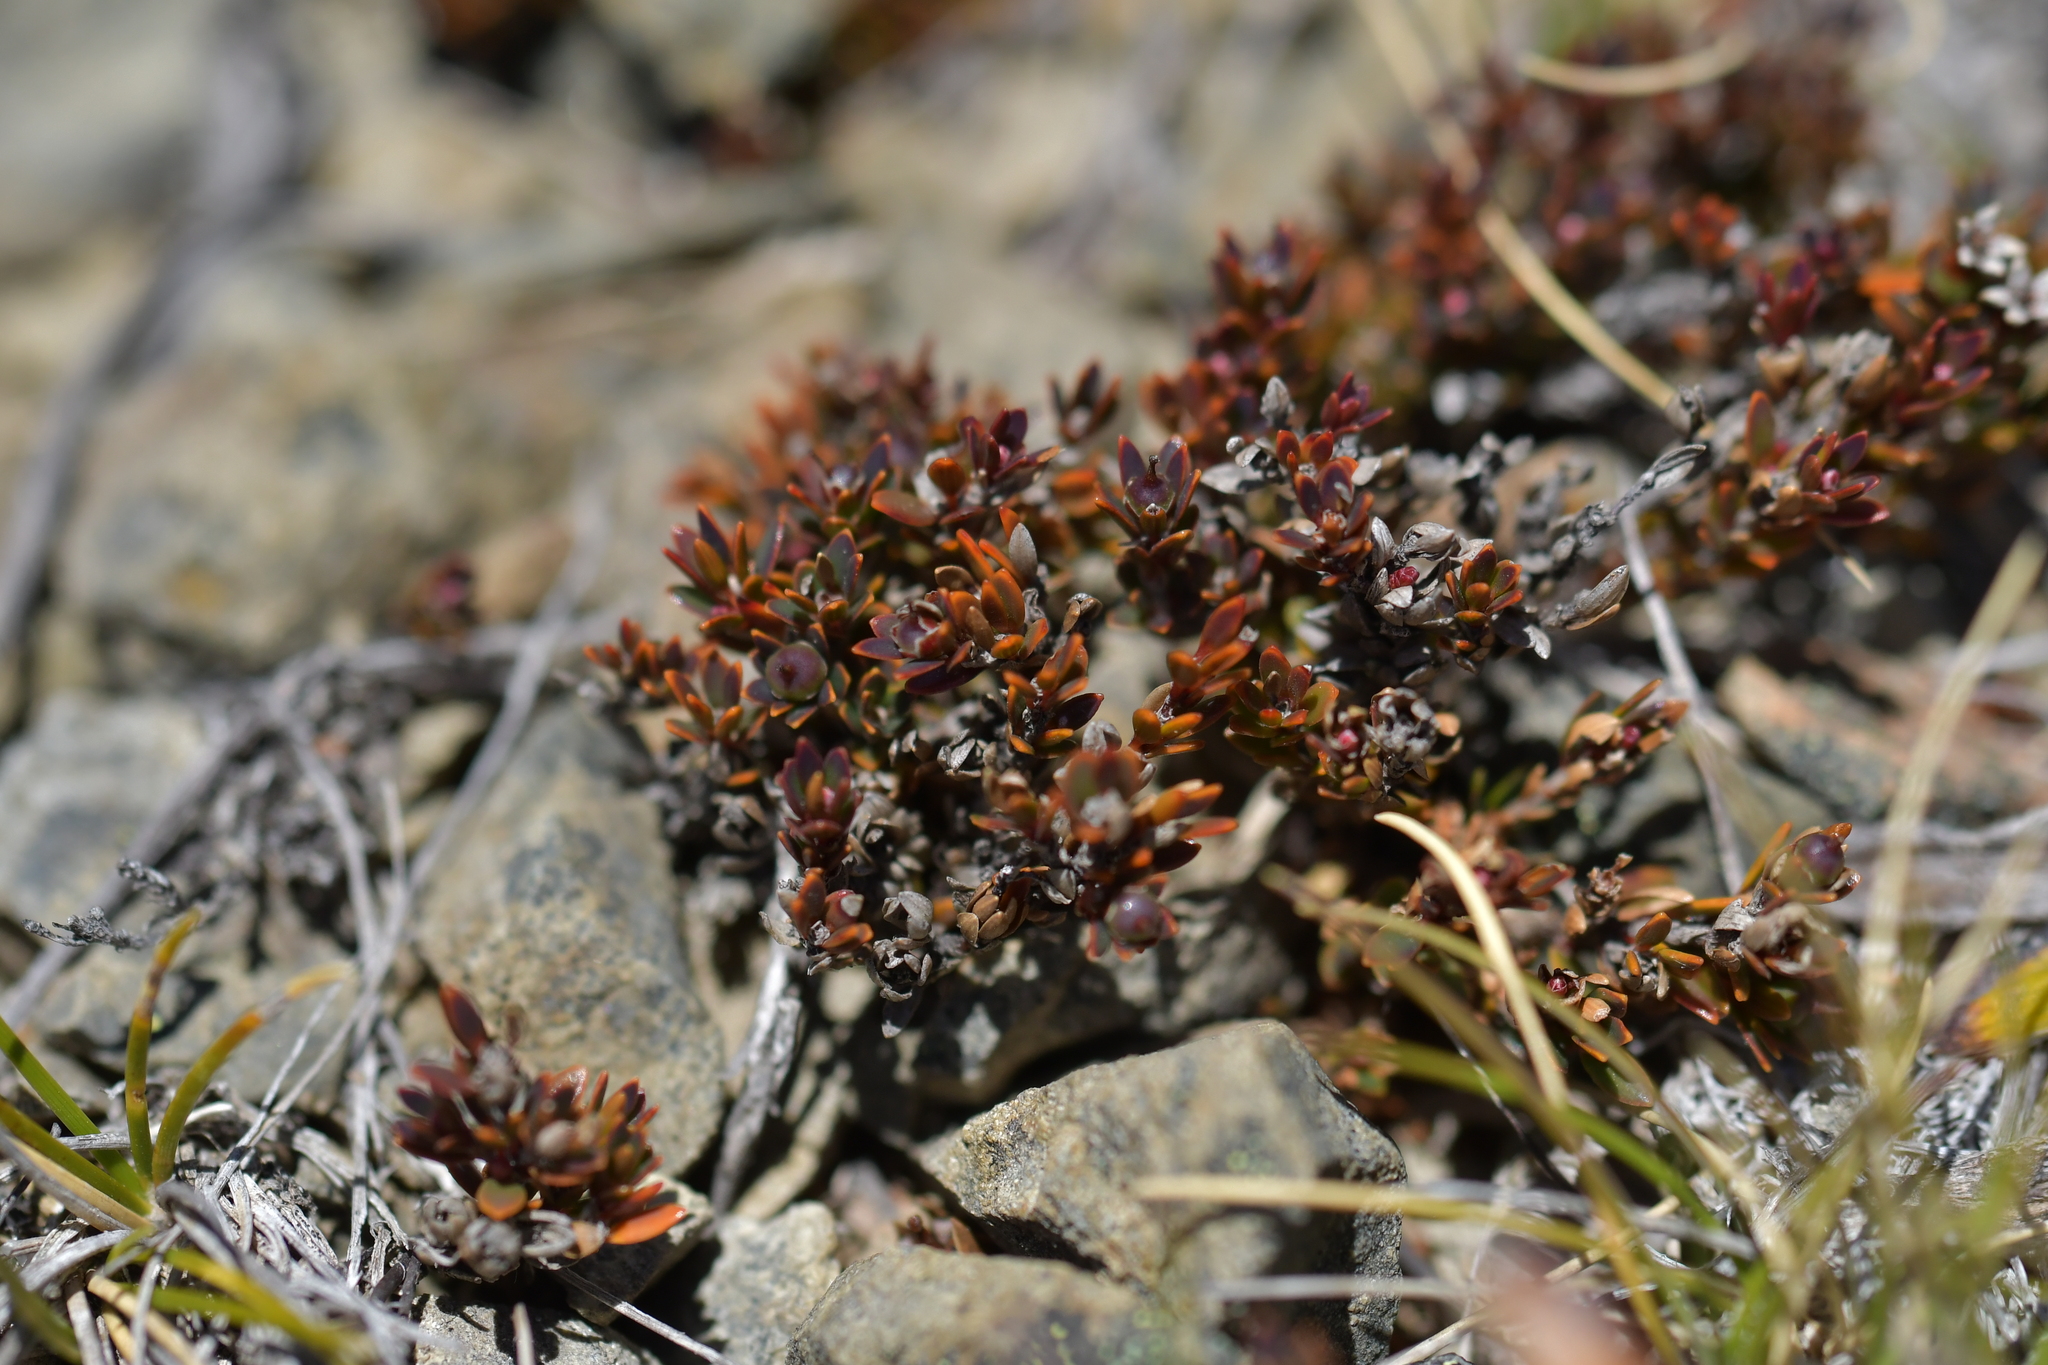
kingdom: Plantae
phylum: Tracheophyta
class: Magnoliopsida
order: Ericales
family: Ericaceae
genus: Pentachondra
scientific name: Pentachondra pumila
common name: Carpet-heath
